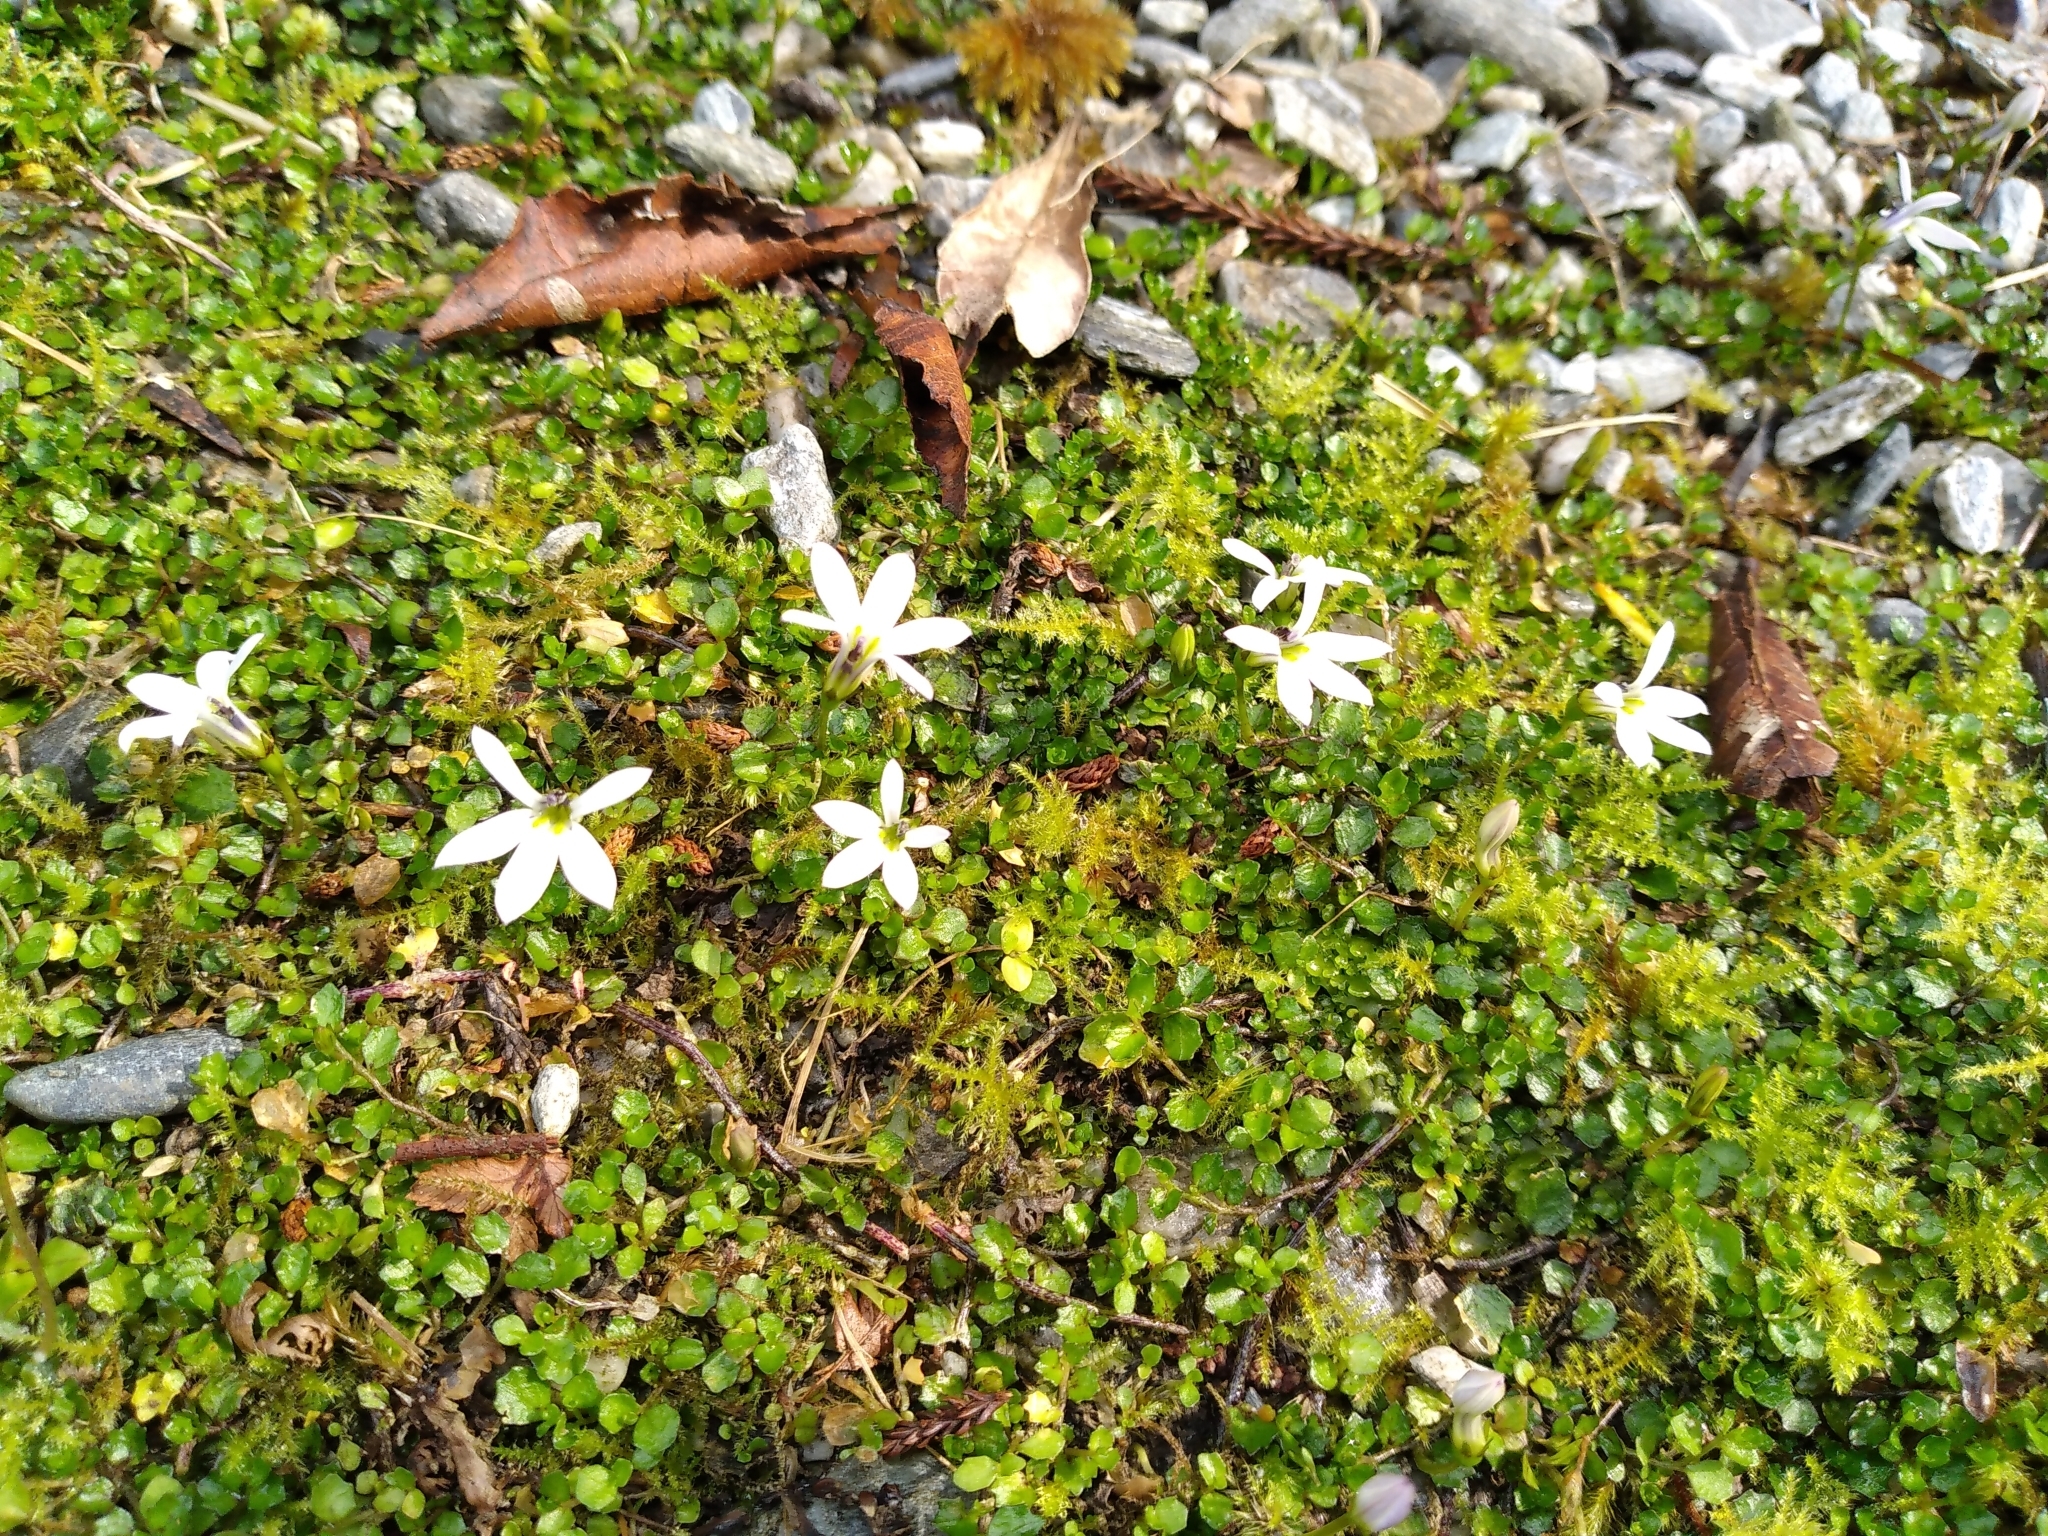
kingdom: Plantae
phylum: Tracheophyta
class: Magnoliopsida
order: Asterales
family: Campanulaceae
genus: Lobelia
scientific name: Lobelia angulata
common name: Lawn lobelia
